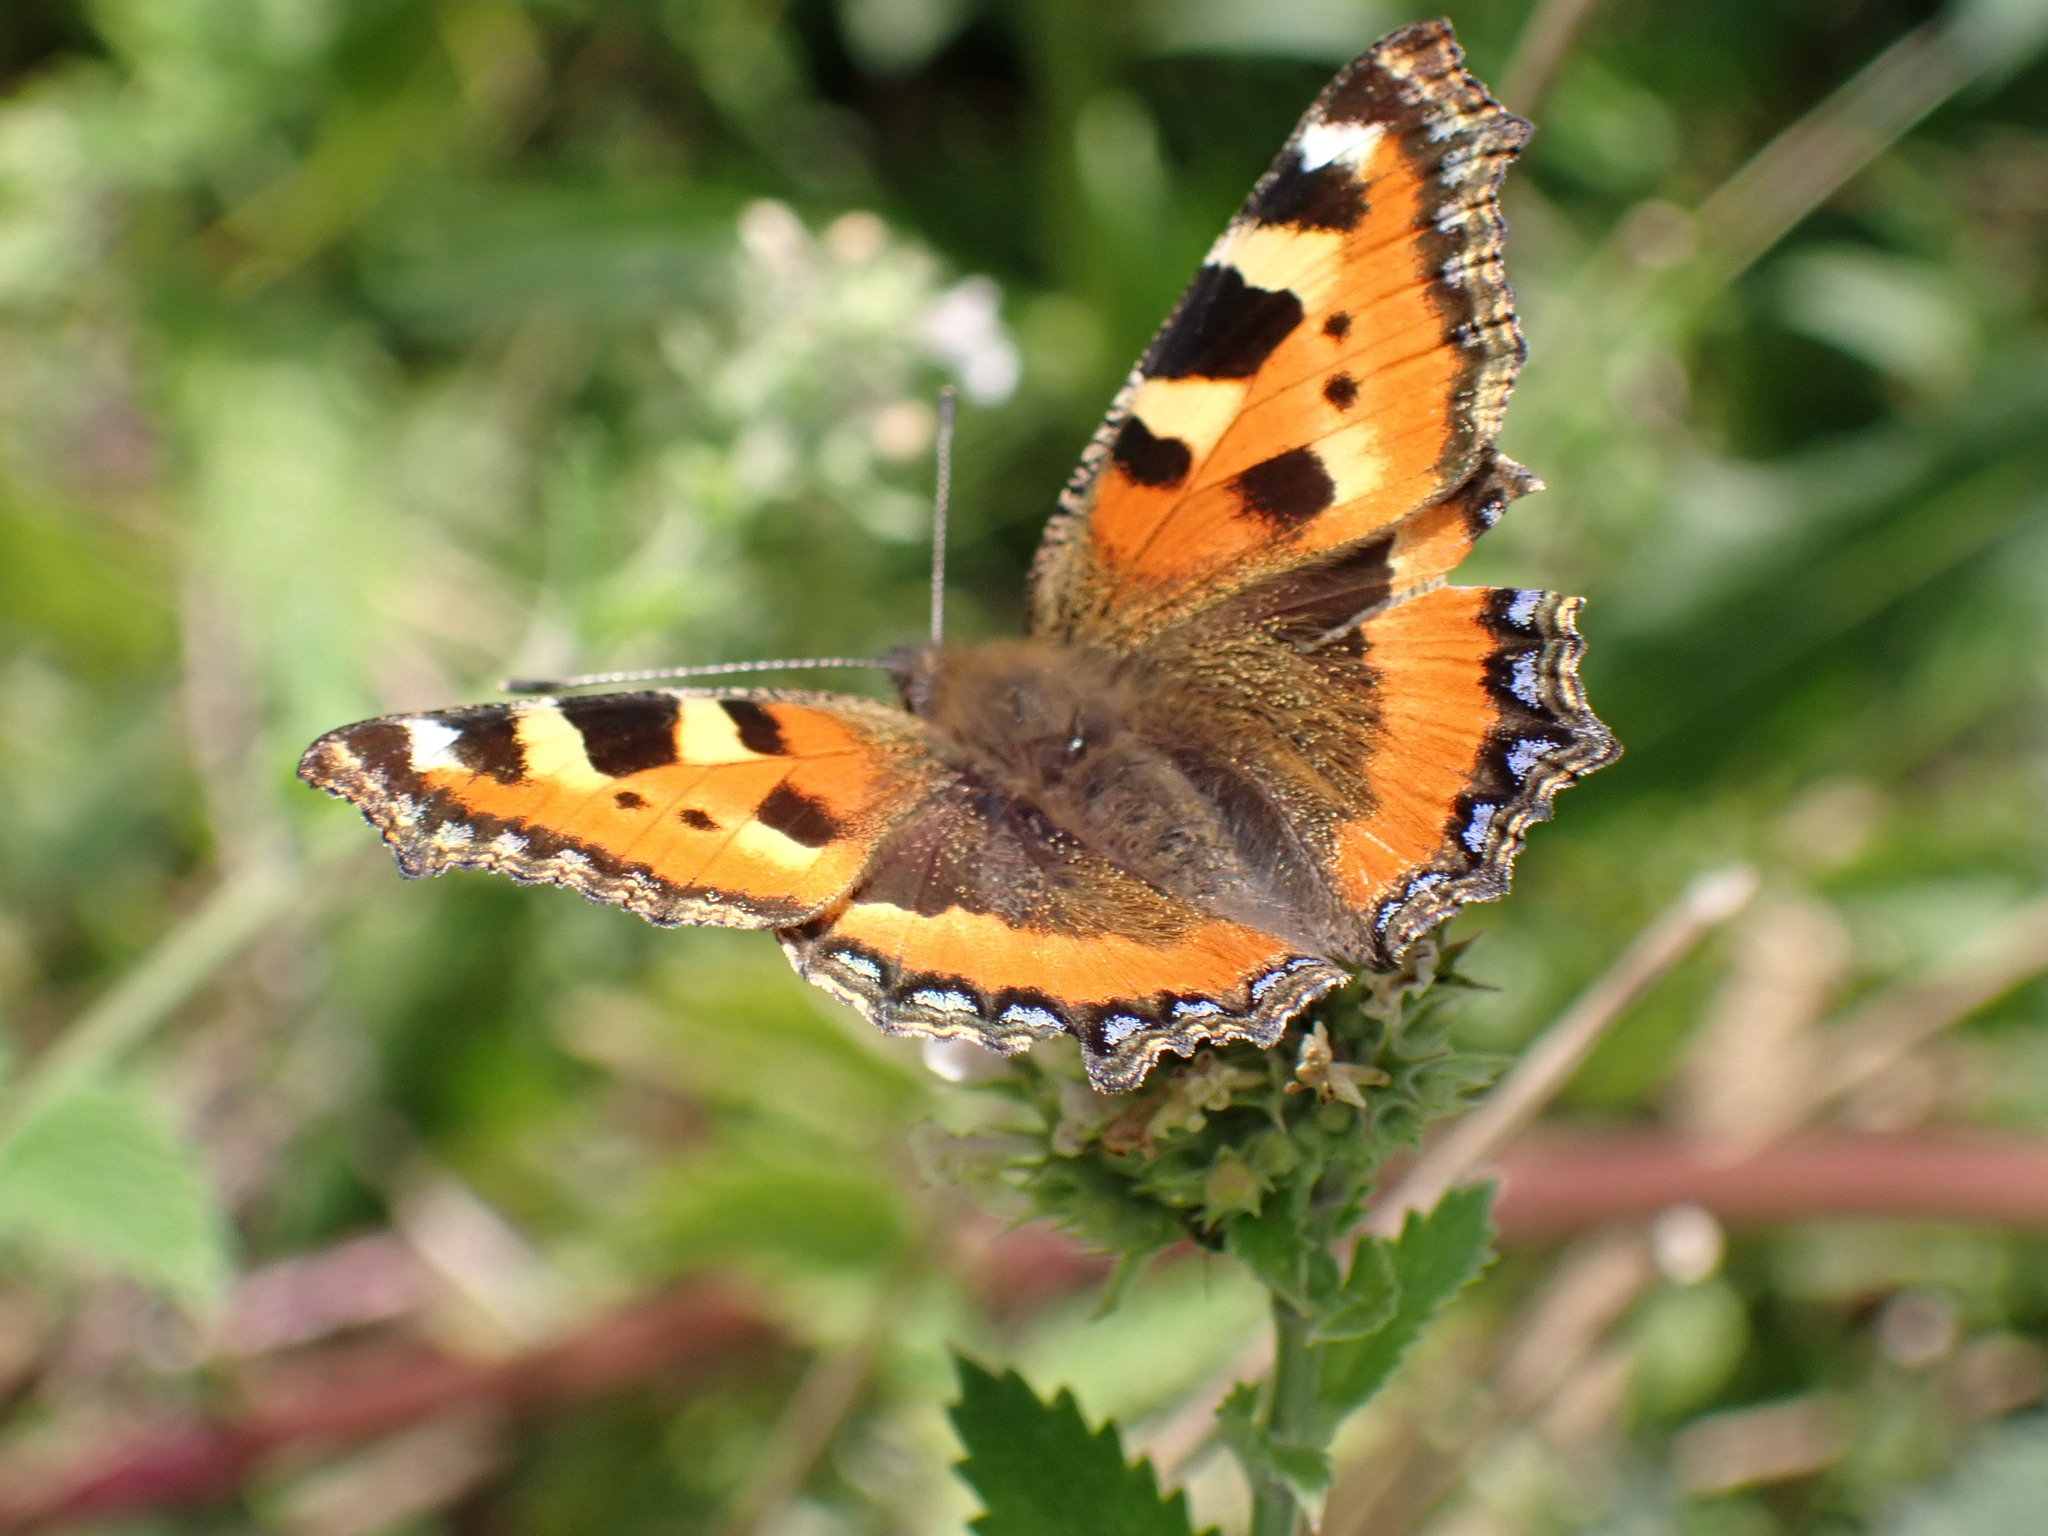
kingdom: Animalia
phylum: Arthropoda
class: Insecta
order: Lepidoptera
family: Nymphalidae
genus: Aglais
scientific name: Aglais urticae
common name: Small tortoiseshell
